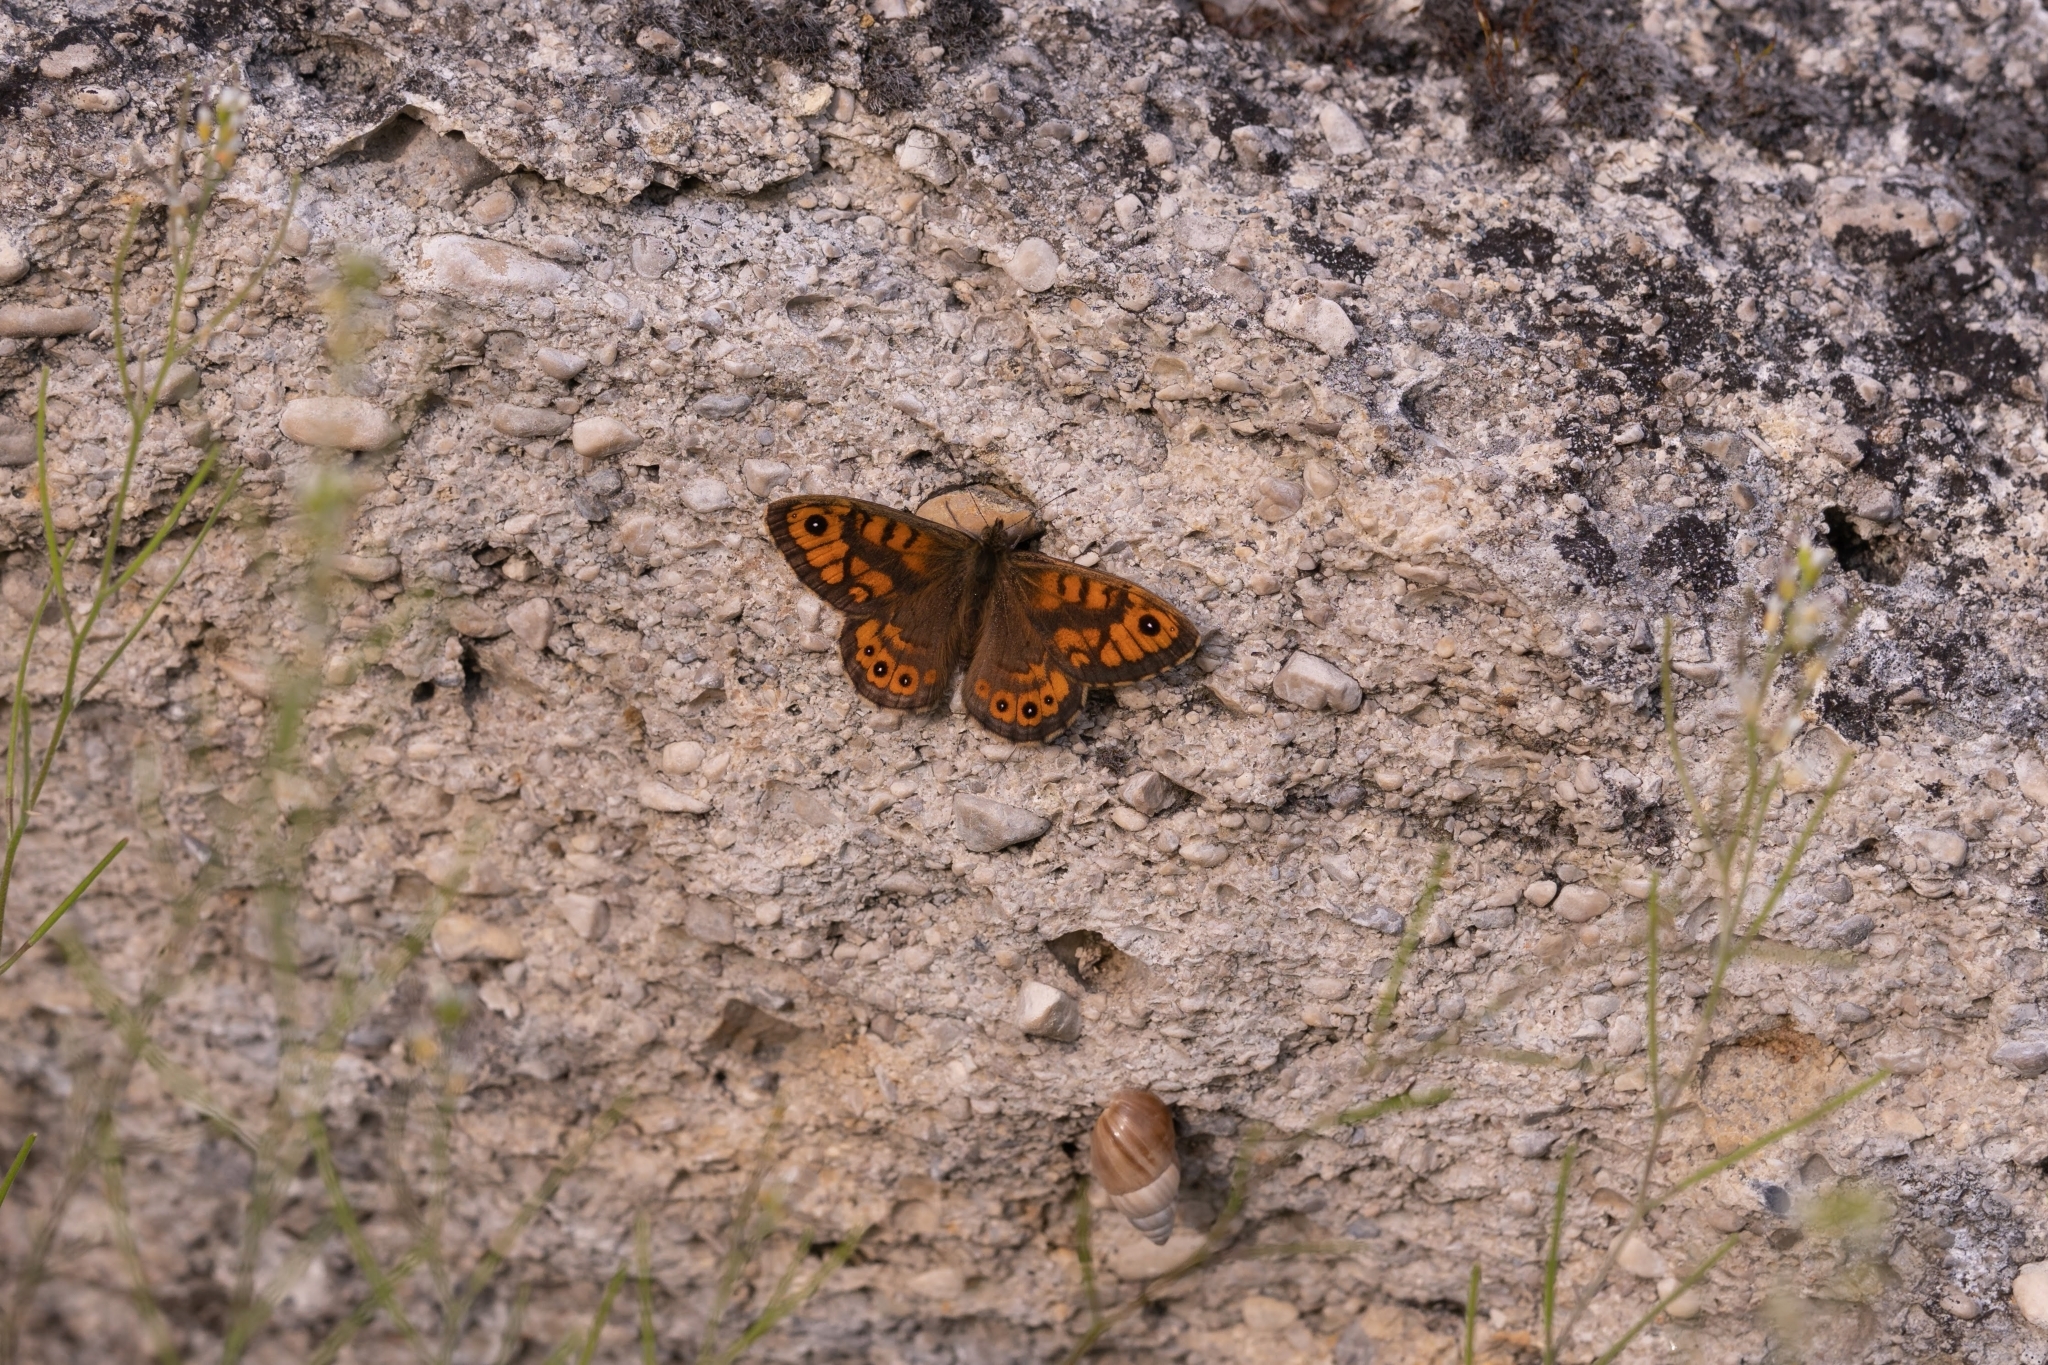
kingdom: Animalia
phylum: Arthropoda
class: Insecta
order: Lepidoptera
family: Nymphalidae
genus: Pararge
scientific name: Pararge Lasiommata megera
